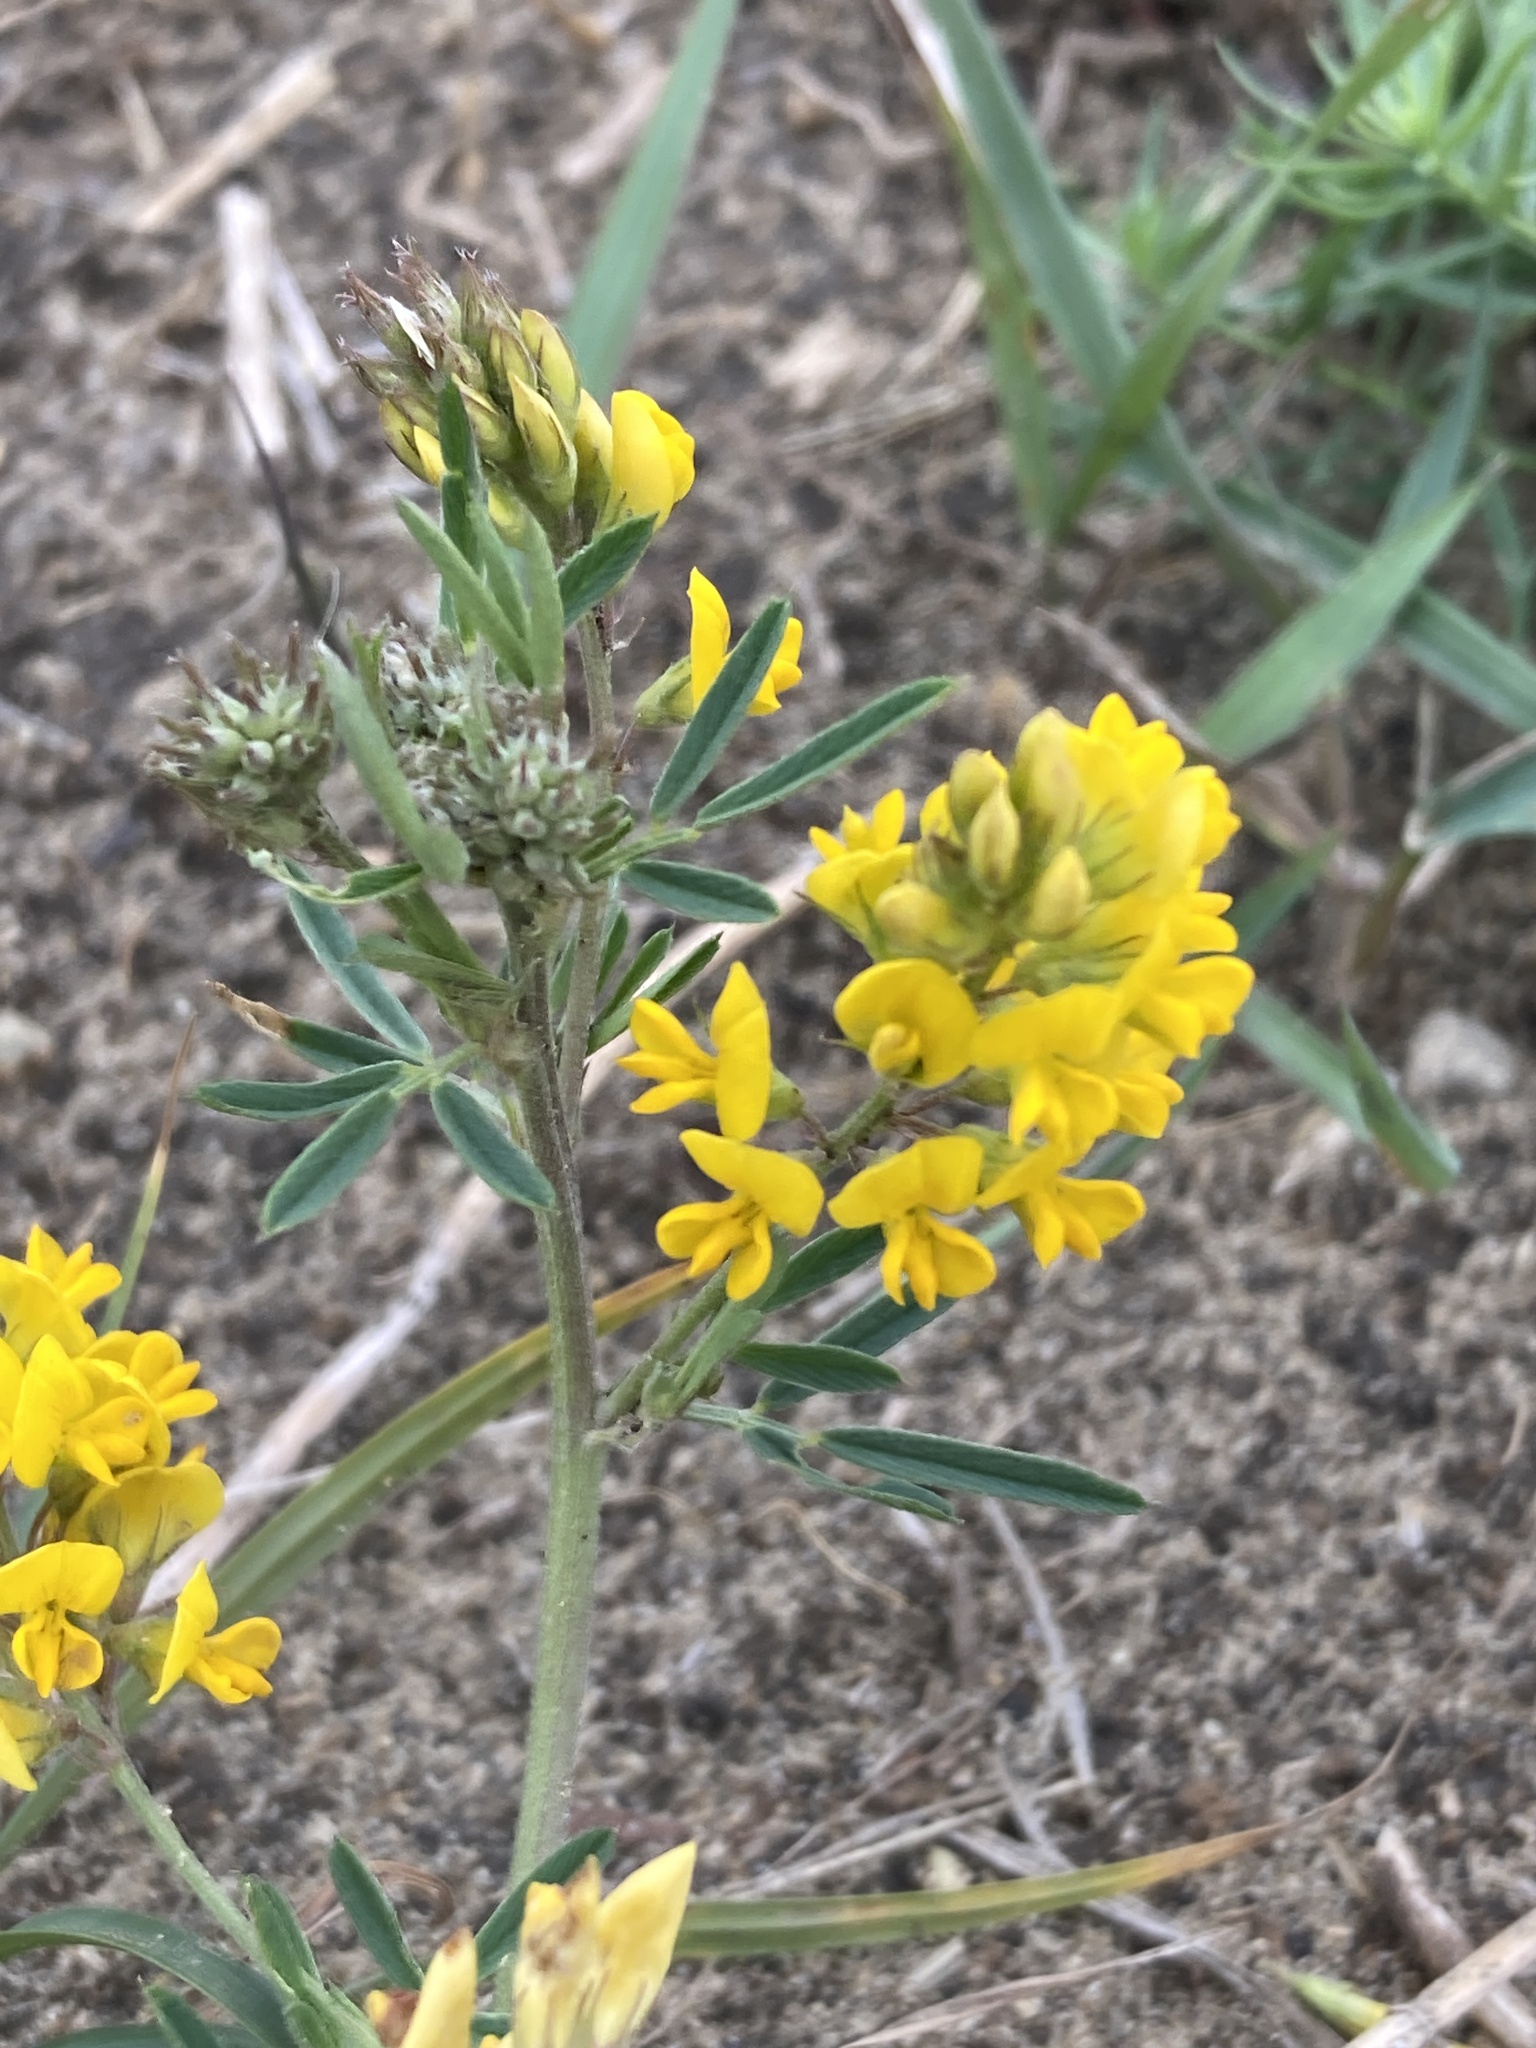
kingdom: Plantae
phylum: Tracheophyta
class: Magnoliopsida
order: Fabales
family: Fabaceae
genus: Medicago
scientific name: Medicago falcata
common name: Sickle medick
